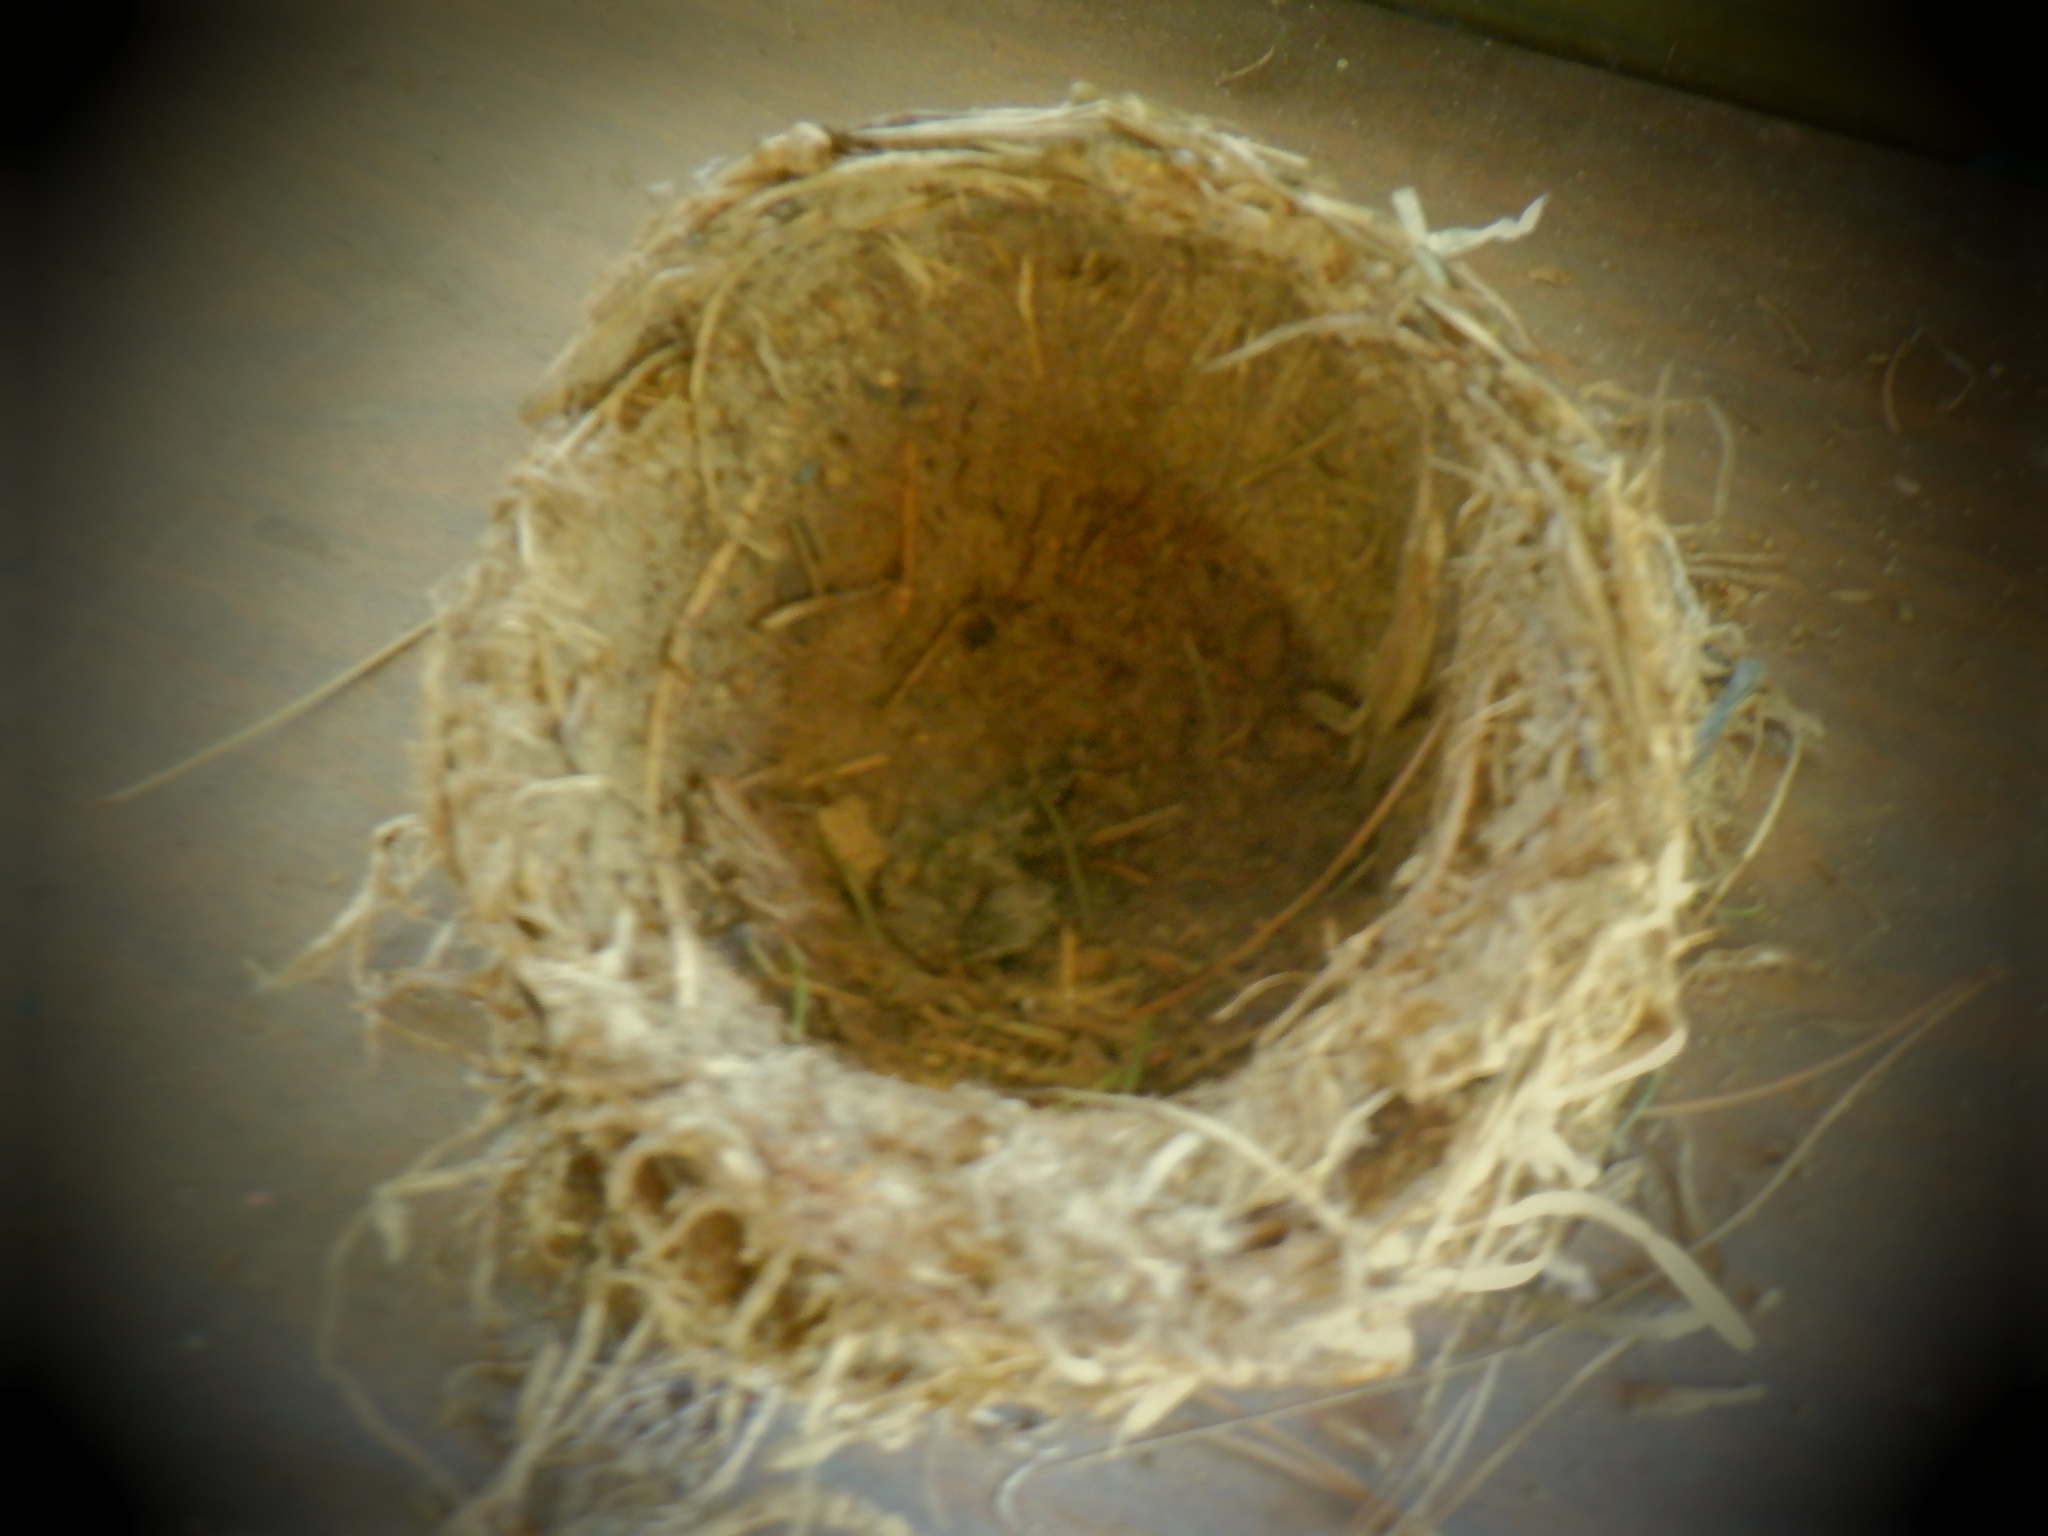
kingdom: Animalia
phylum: Chordata
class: Aves
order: Passeriformes
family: Turdidae
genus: Turdus
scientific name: Turdus migratorius
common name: American robin
